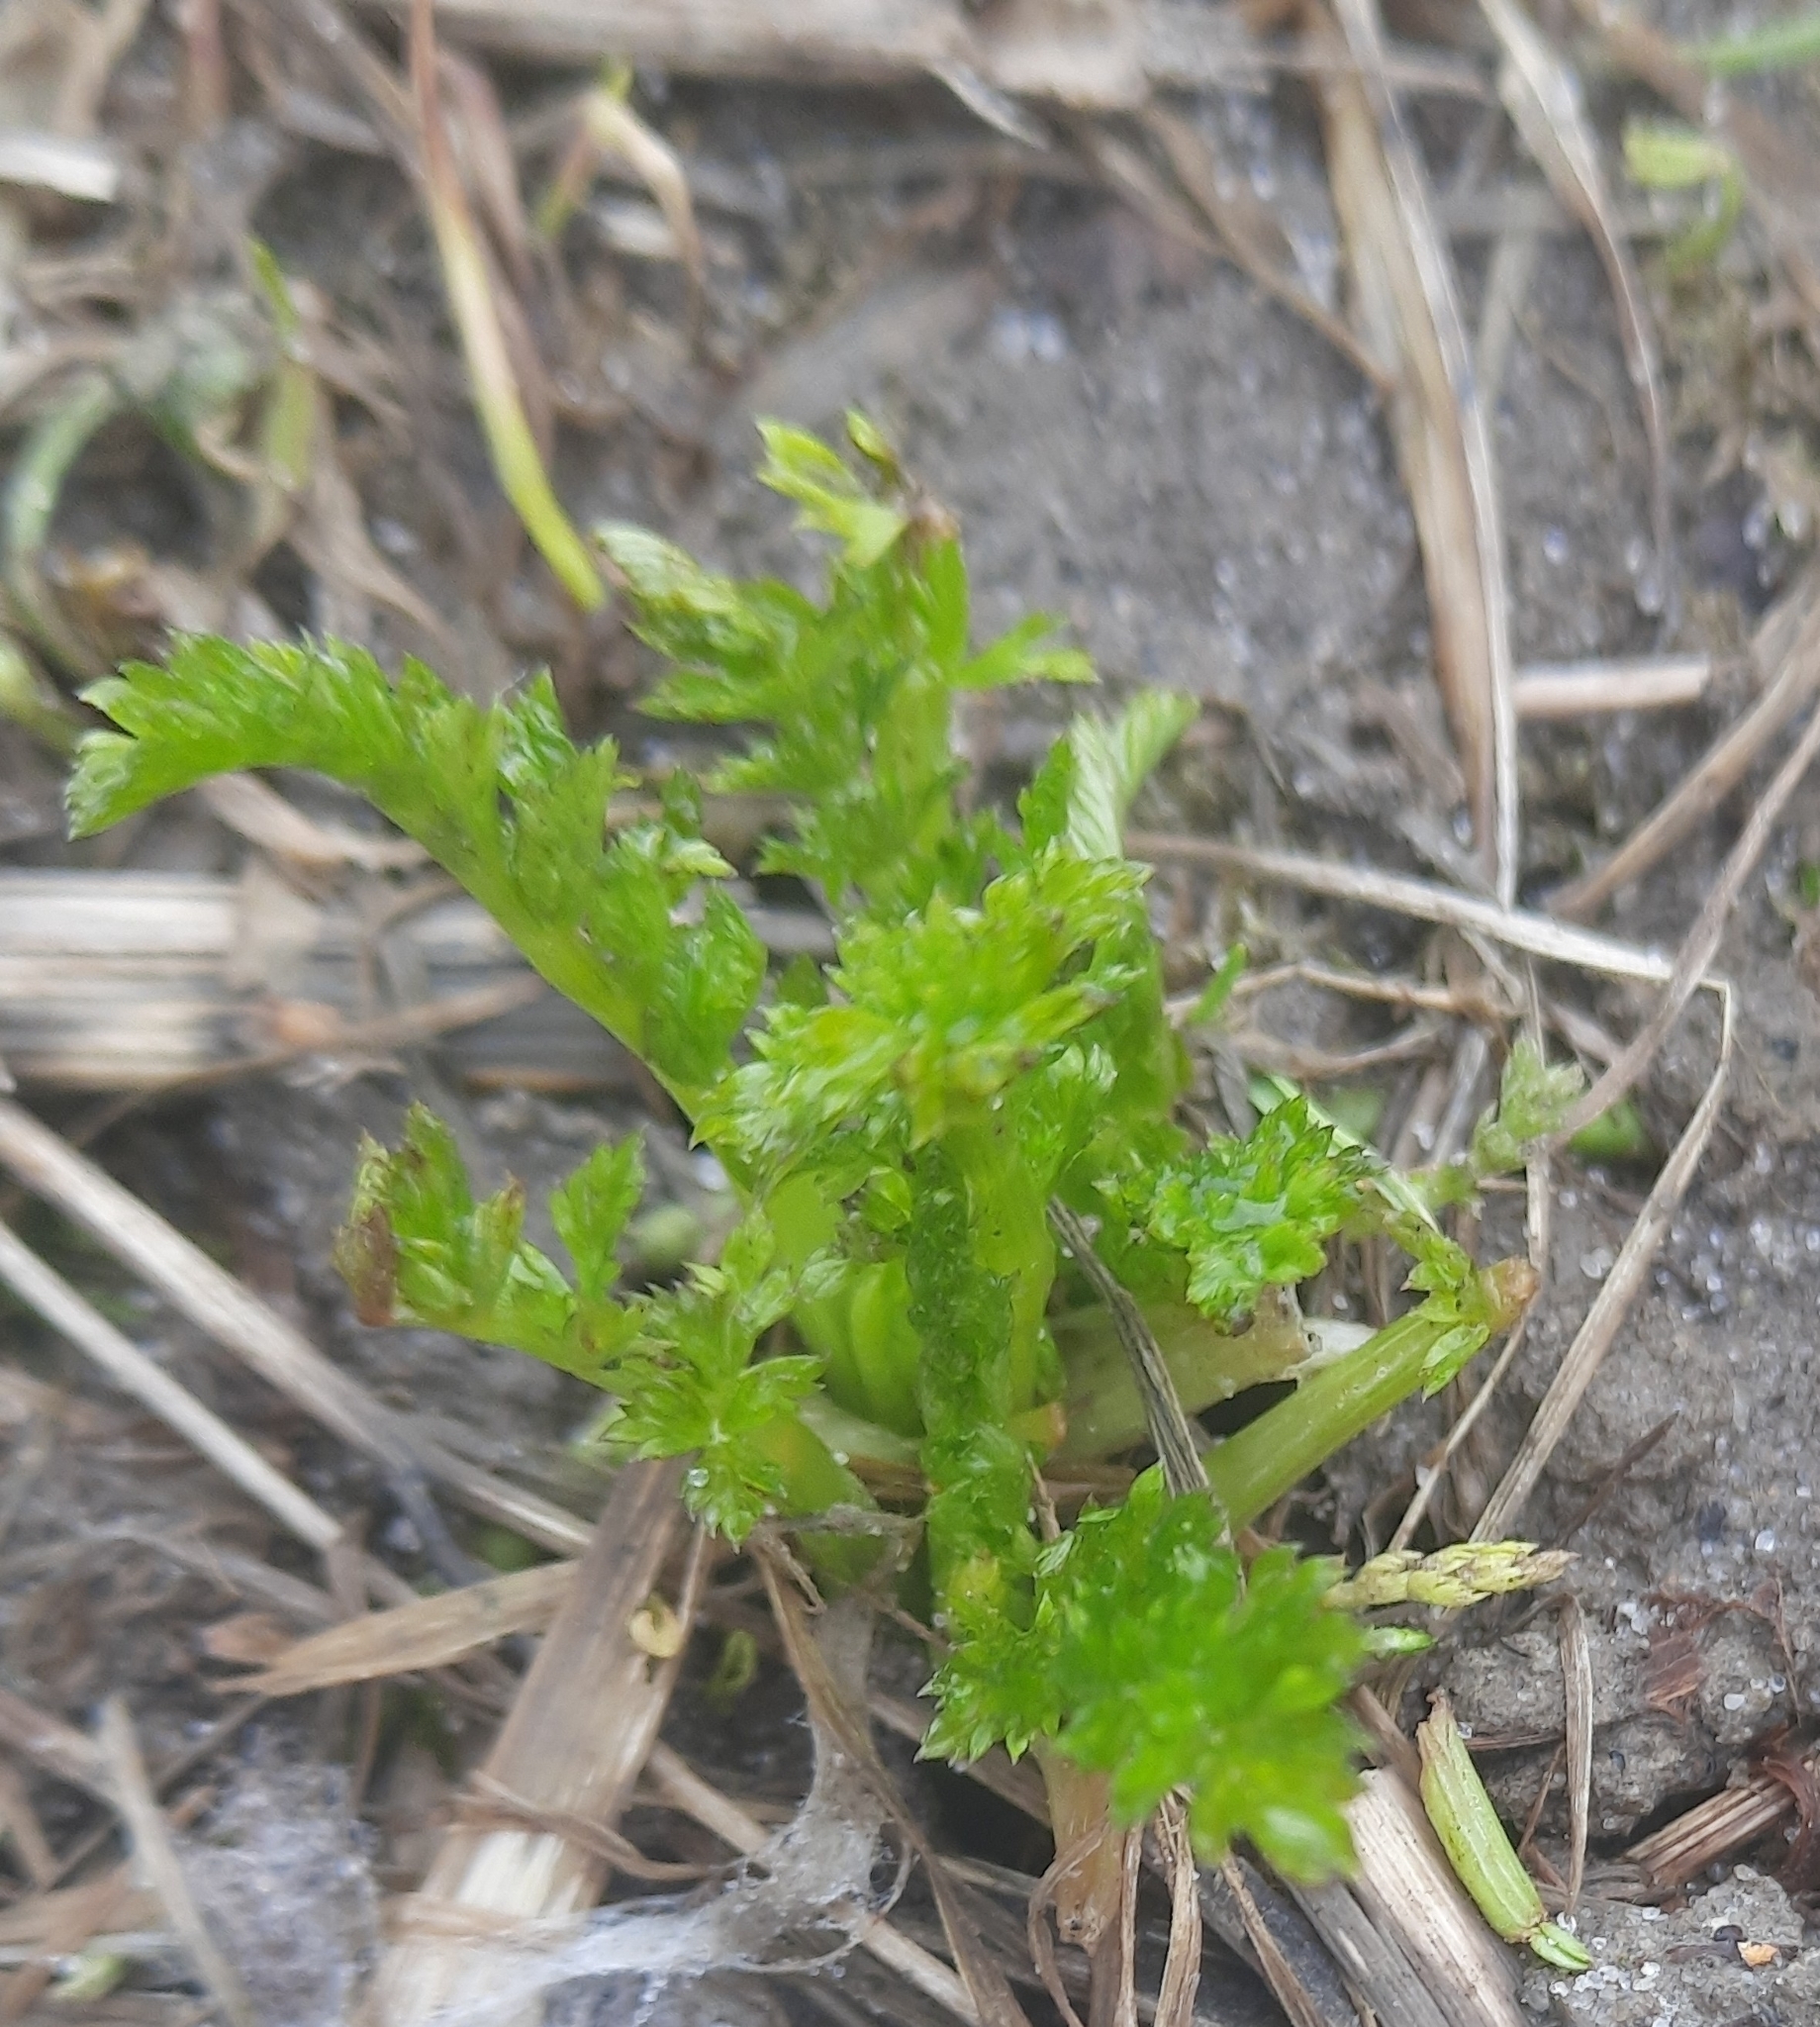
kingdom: Plantae
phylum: Tracheophyta
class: Magnoliopsida
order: Apiales
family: Apiaceae
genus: Pastinaca
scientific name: Pastinaca sativa
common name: Wild parsnip
